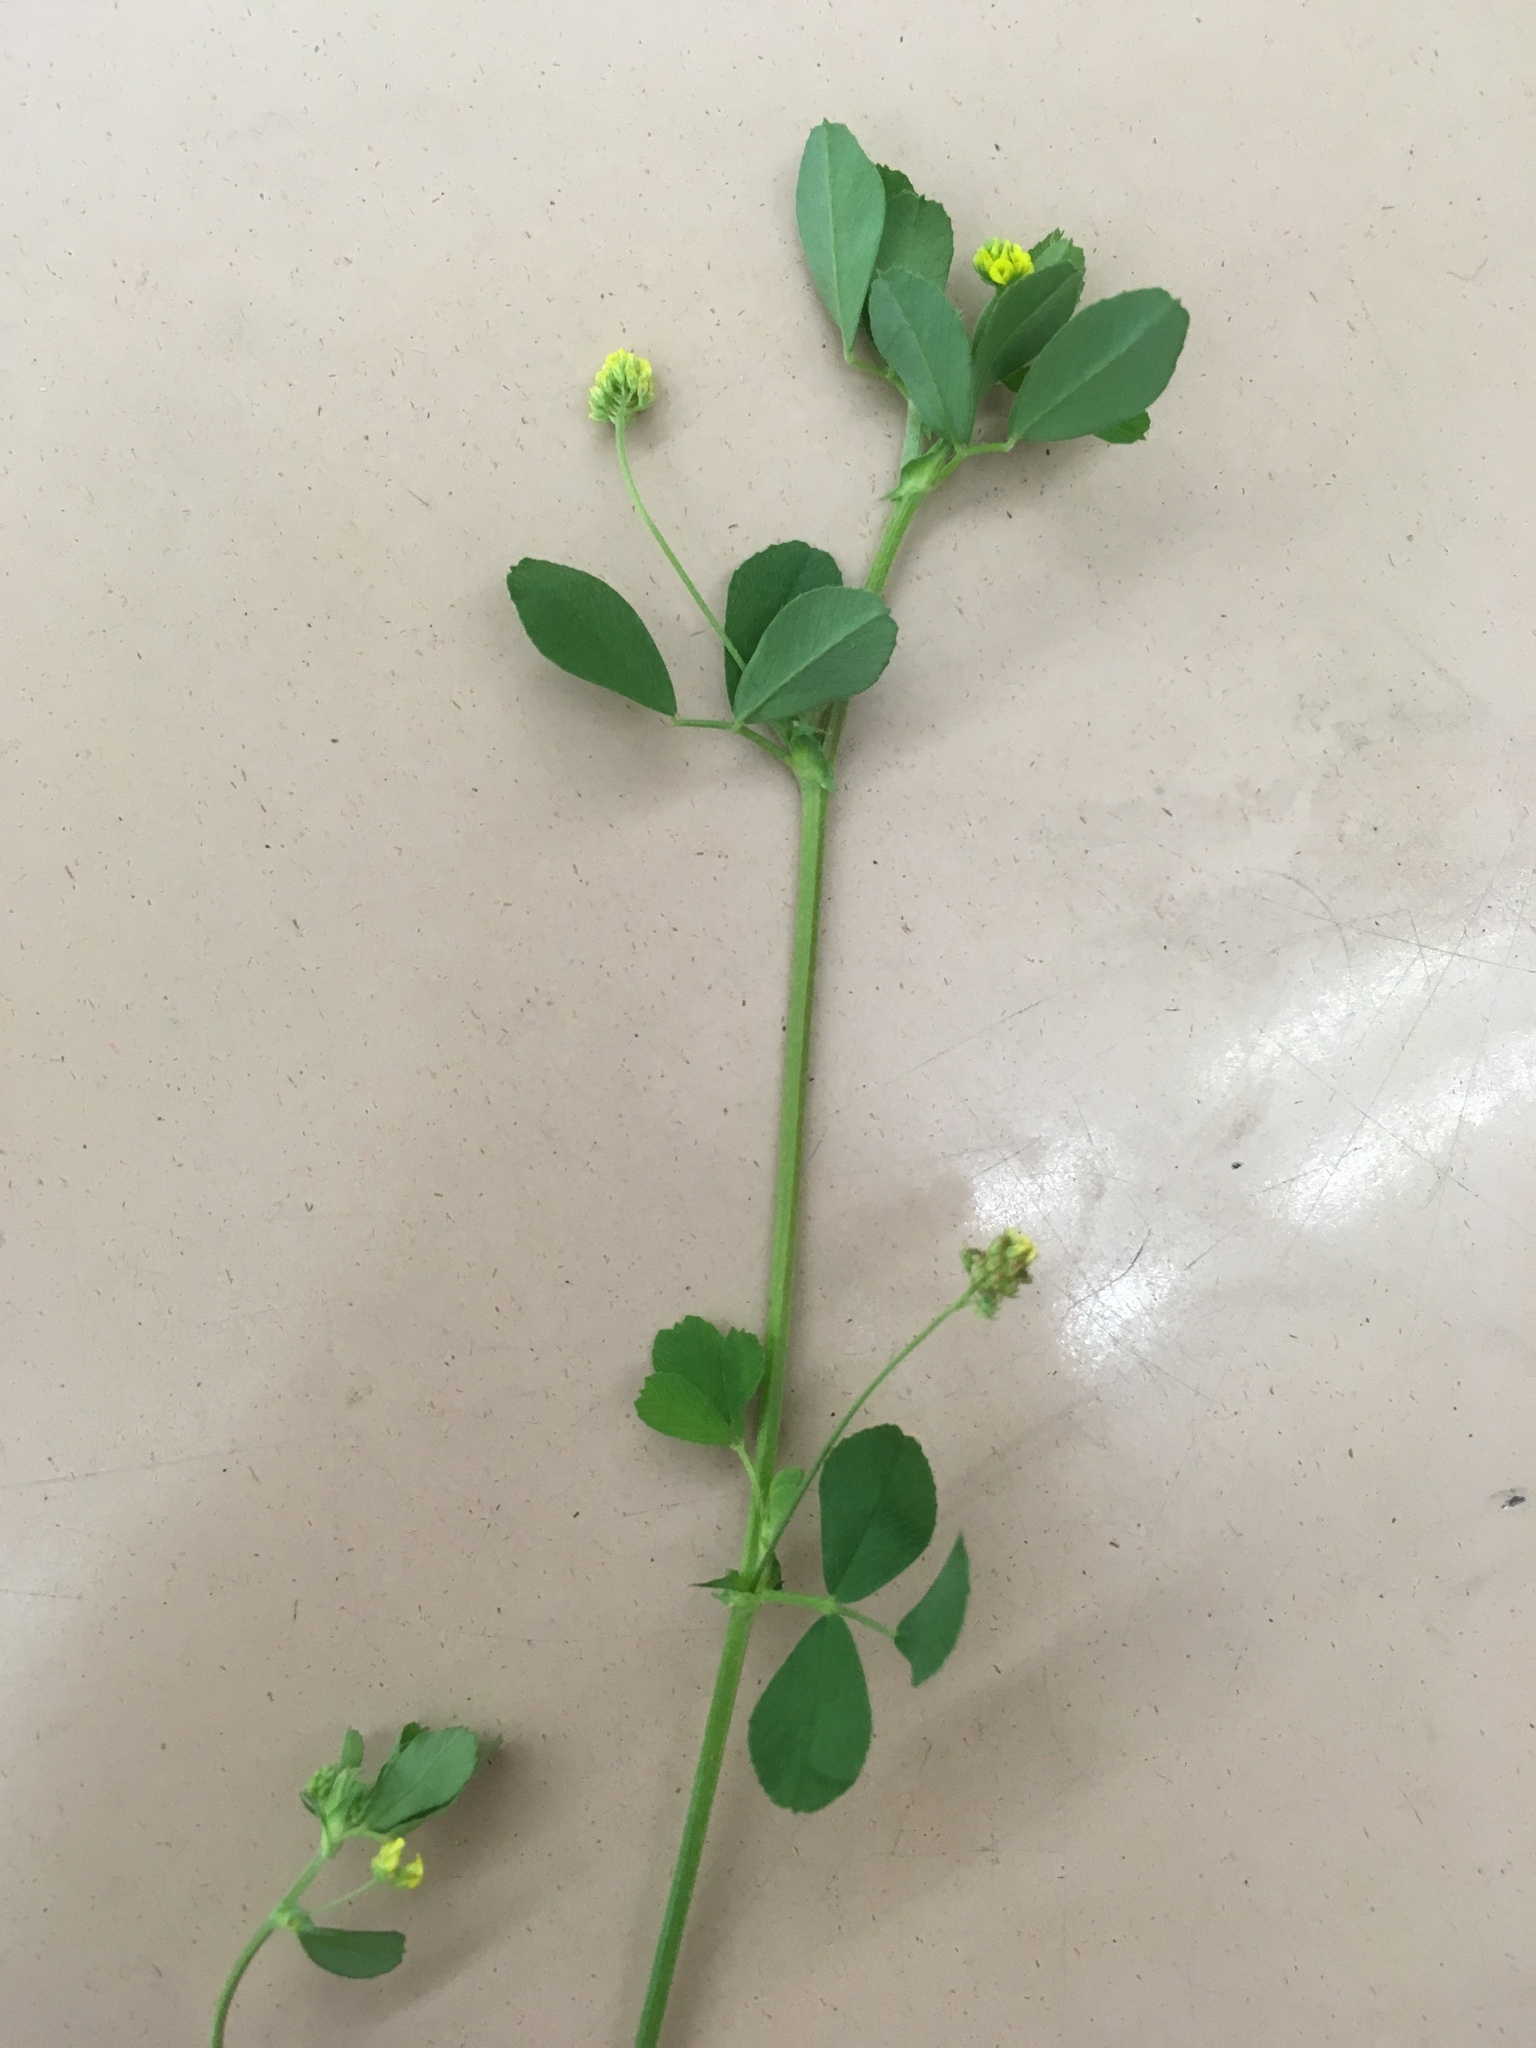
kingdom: Plantae
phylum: Tracheophyta
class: Magnoliopsida
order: Fabales
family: Fabaceae
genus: Medicago
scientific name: Medicago lupulina
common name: Black medick
